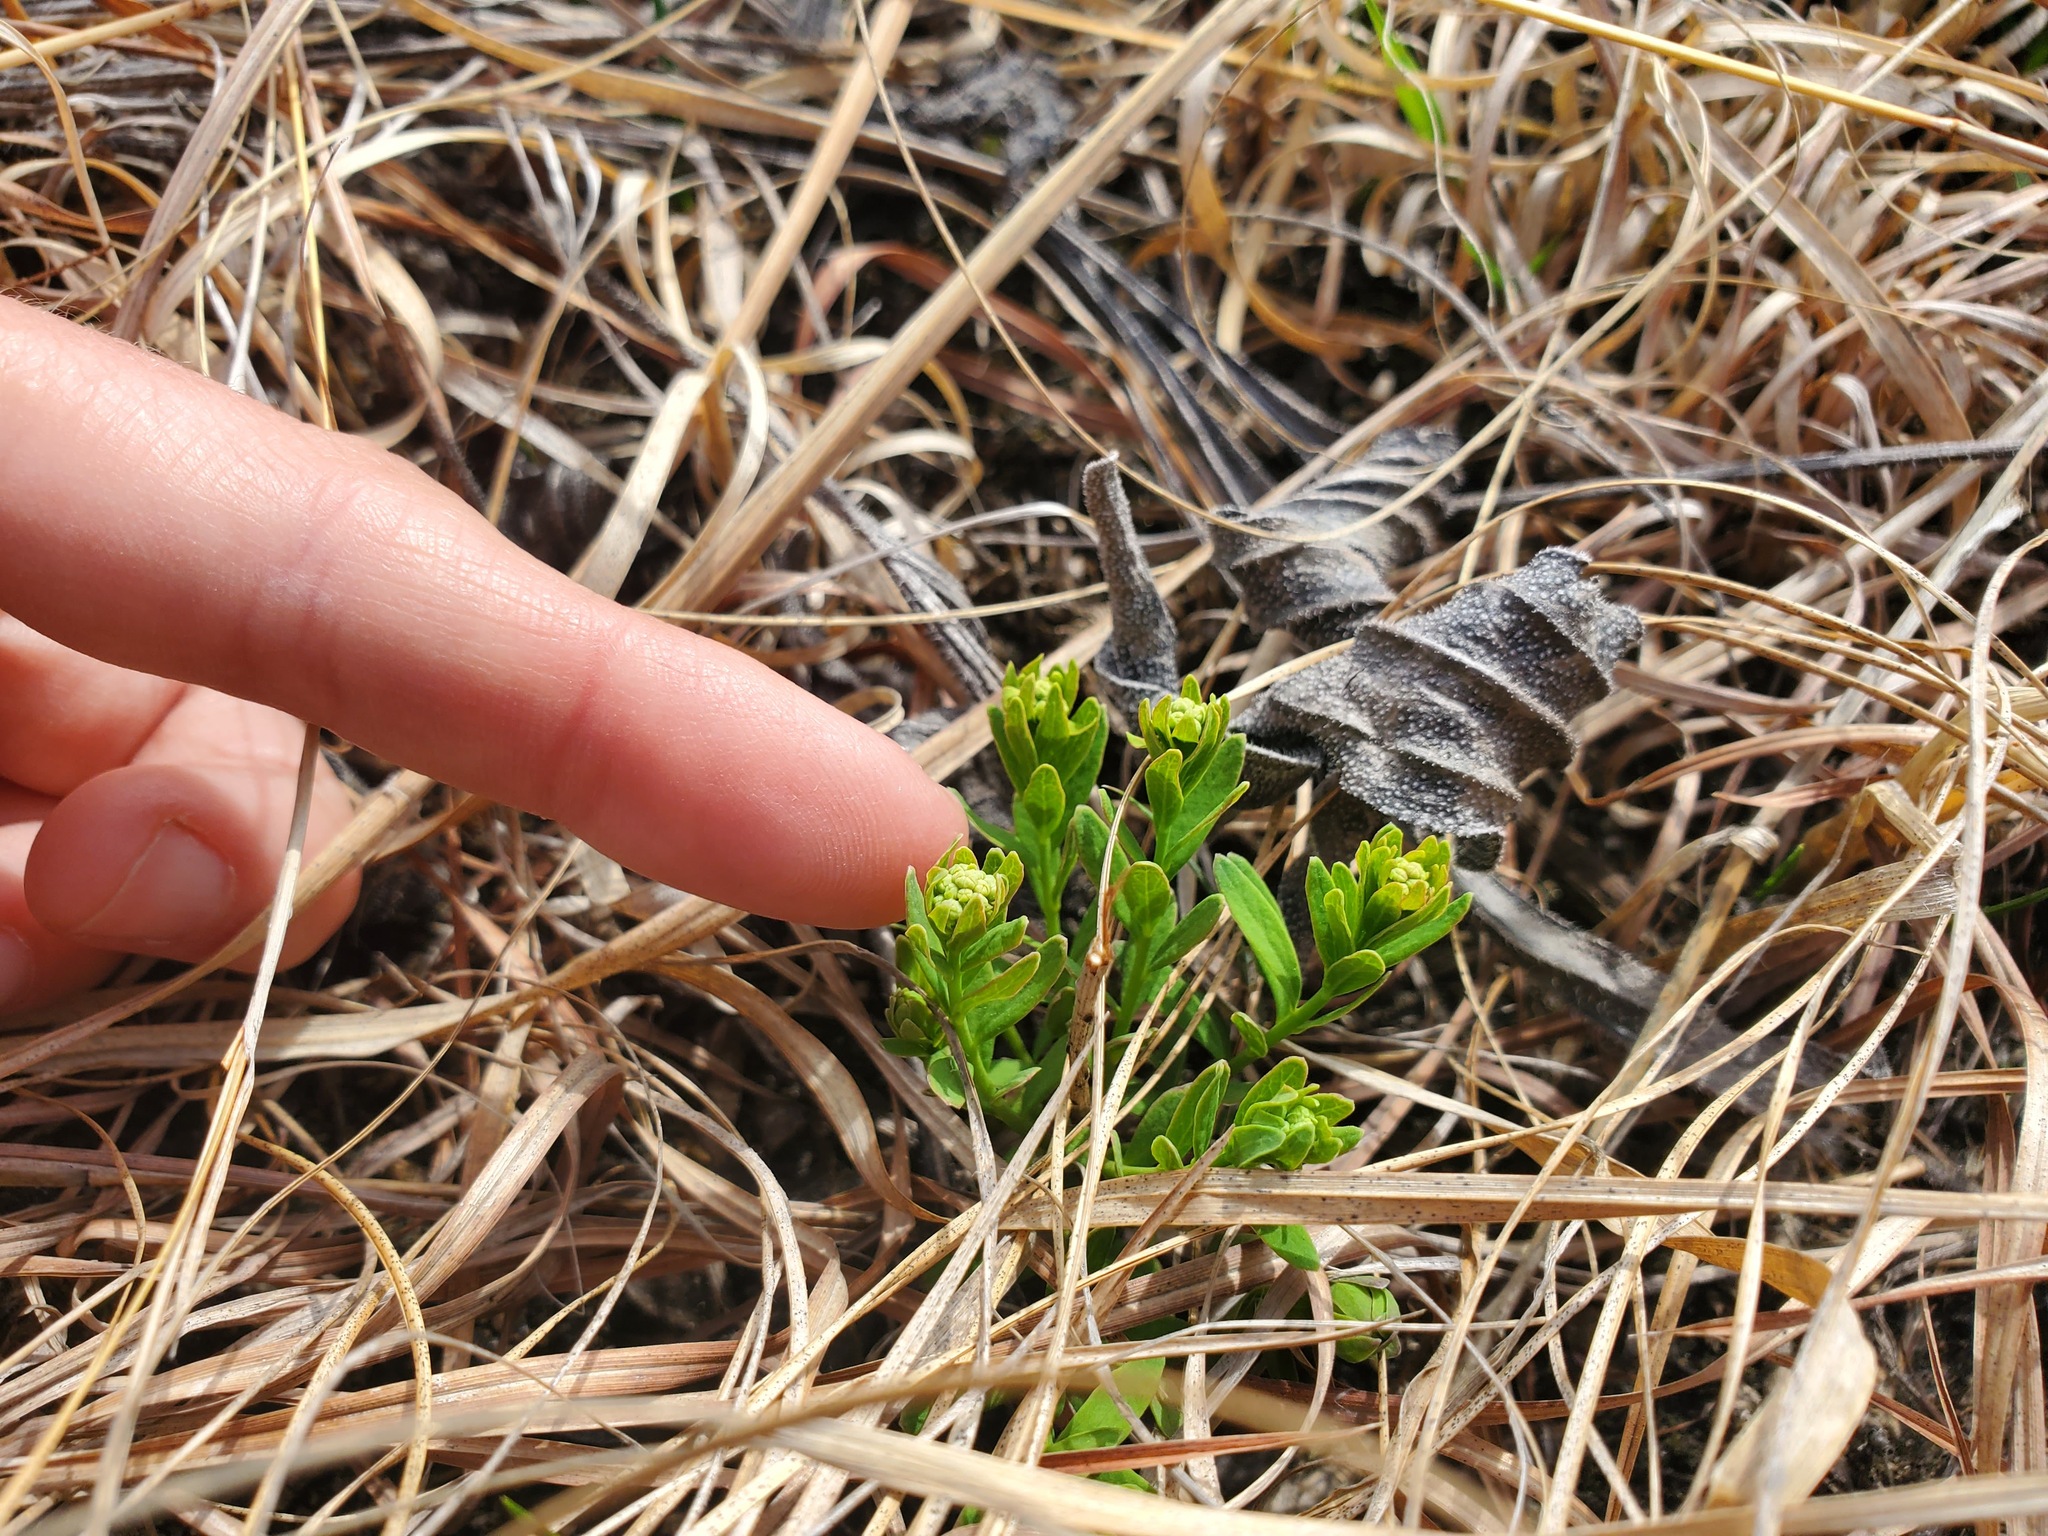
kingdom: Plantae
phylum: Tracheophyta
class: Magnoliopsida
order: Santalales
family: Comandraceae
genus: Comandra
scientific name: Comandra umbellata
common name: Bastard toadflax
